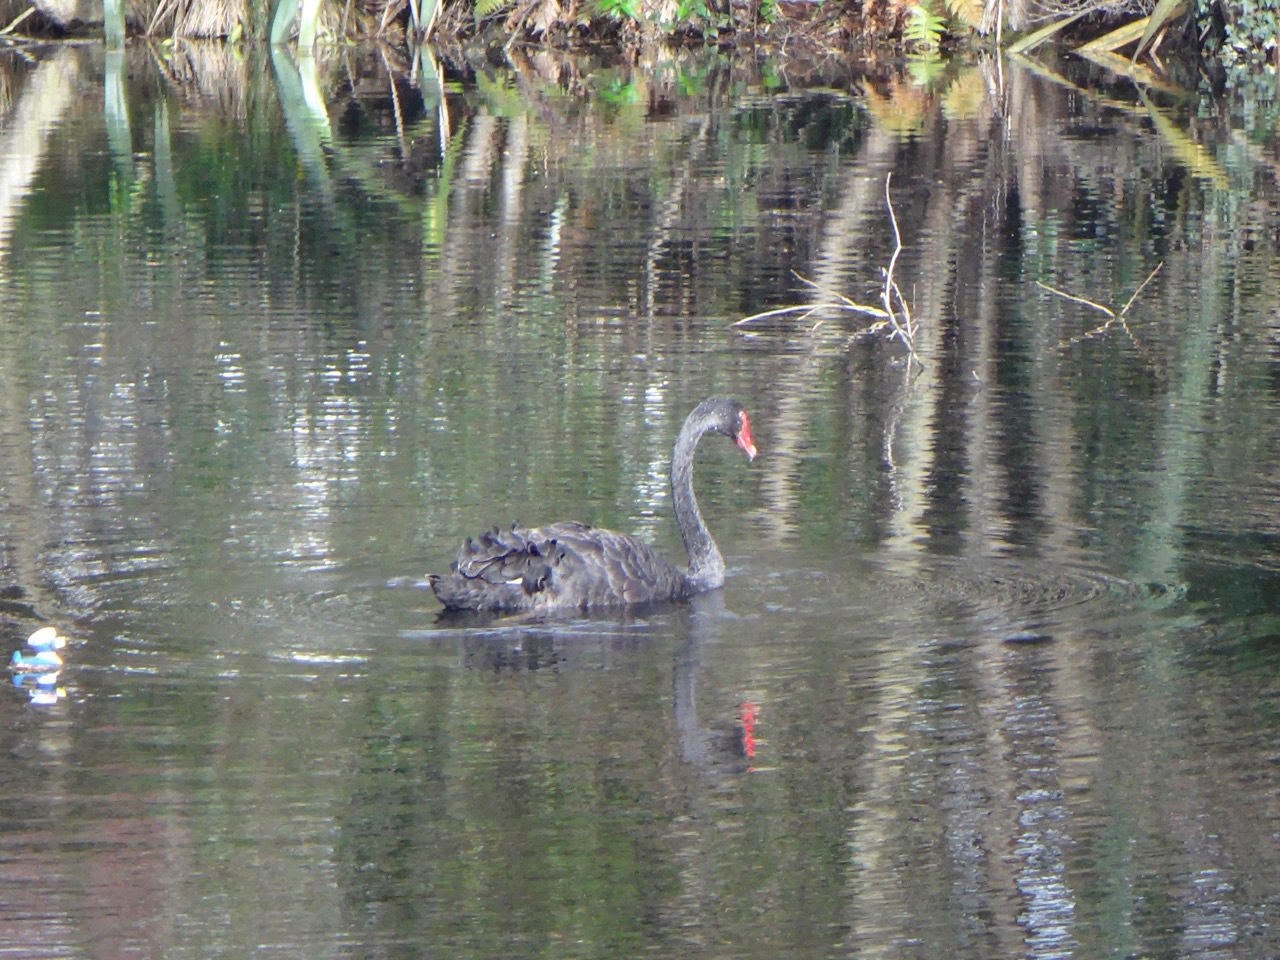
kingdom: Animalia
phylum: Chordata
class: Aves
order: Anseriformes
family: Anatidae
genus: Cygnus
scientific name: Cygnus atratus
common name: Black swan
